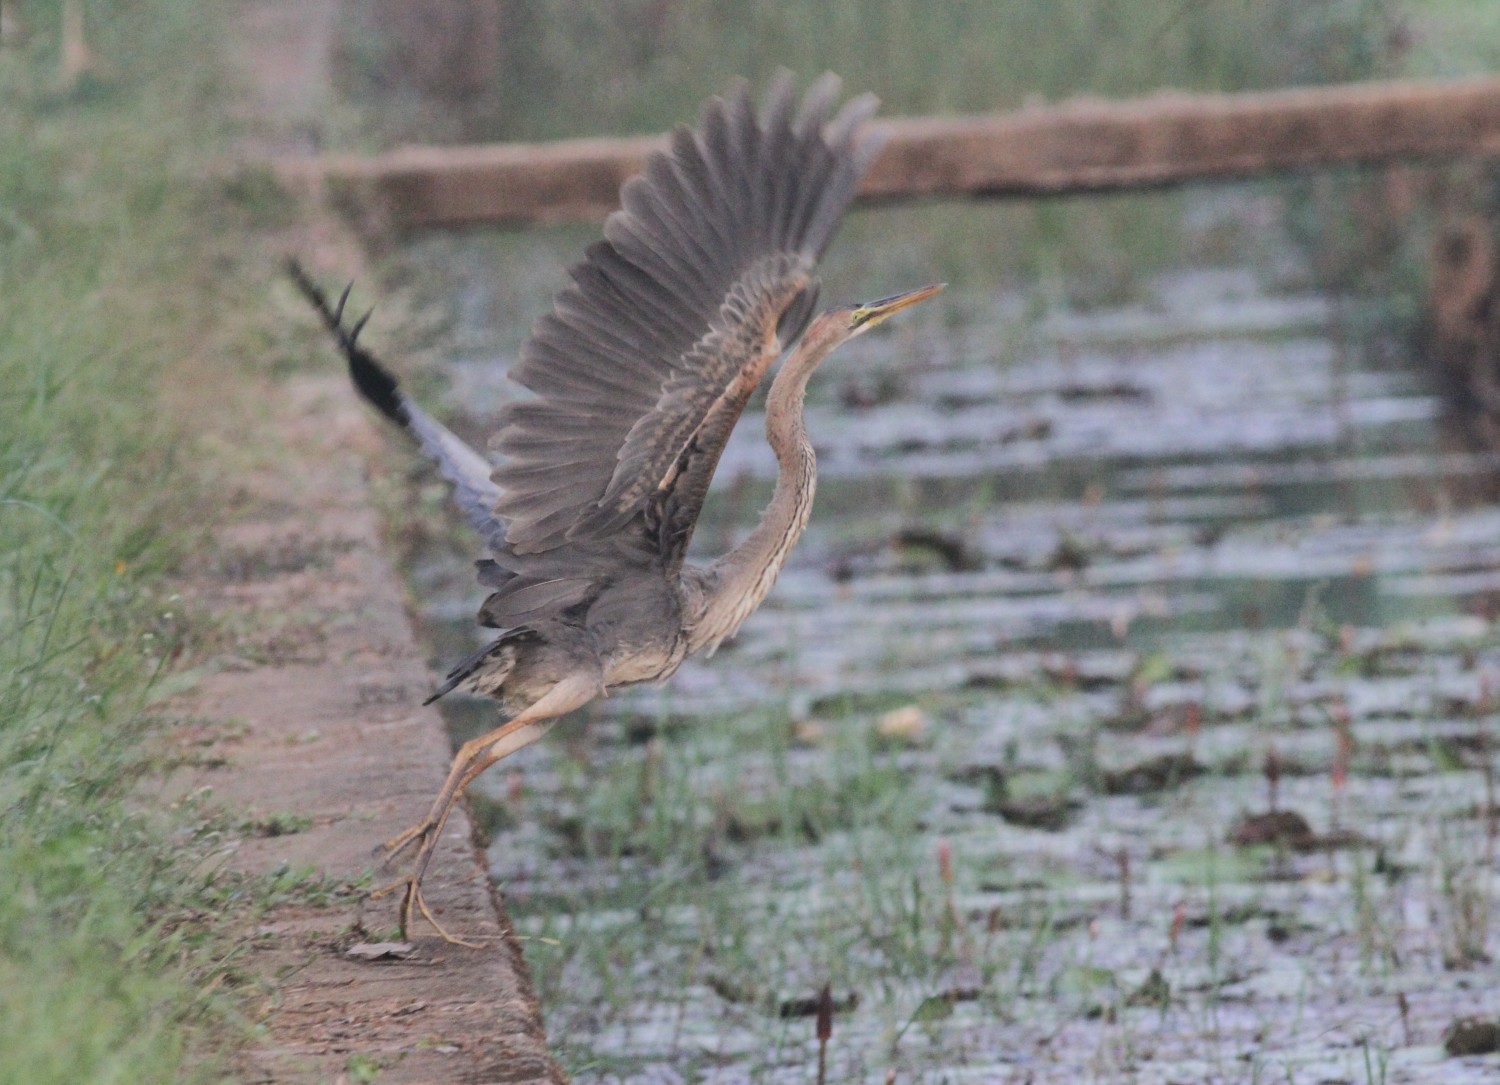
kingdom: Animalia
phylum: Chordata
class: Aves
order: Pelecaniformes
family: Ardeidae
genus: Ardea
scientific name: Ardea purpurea
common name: Purple heron
